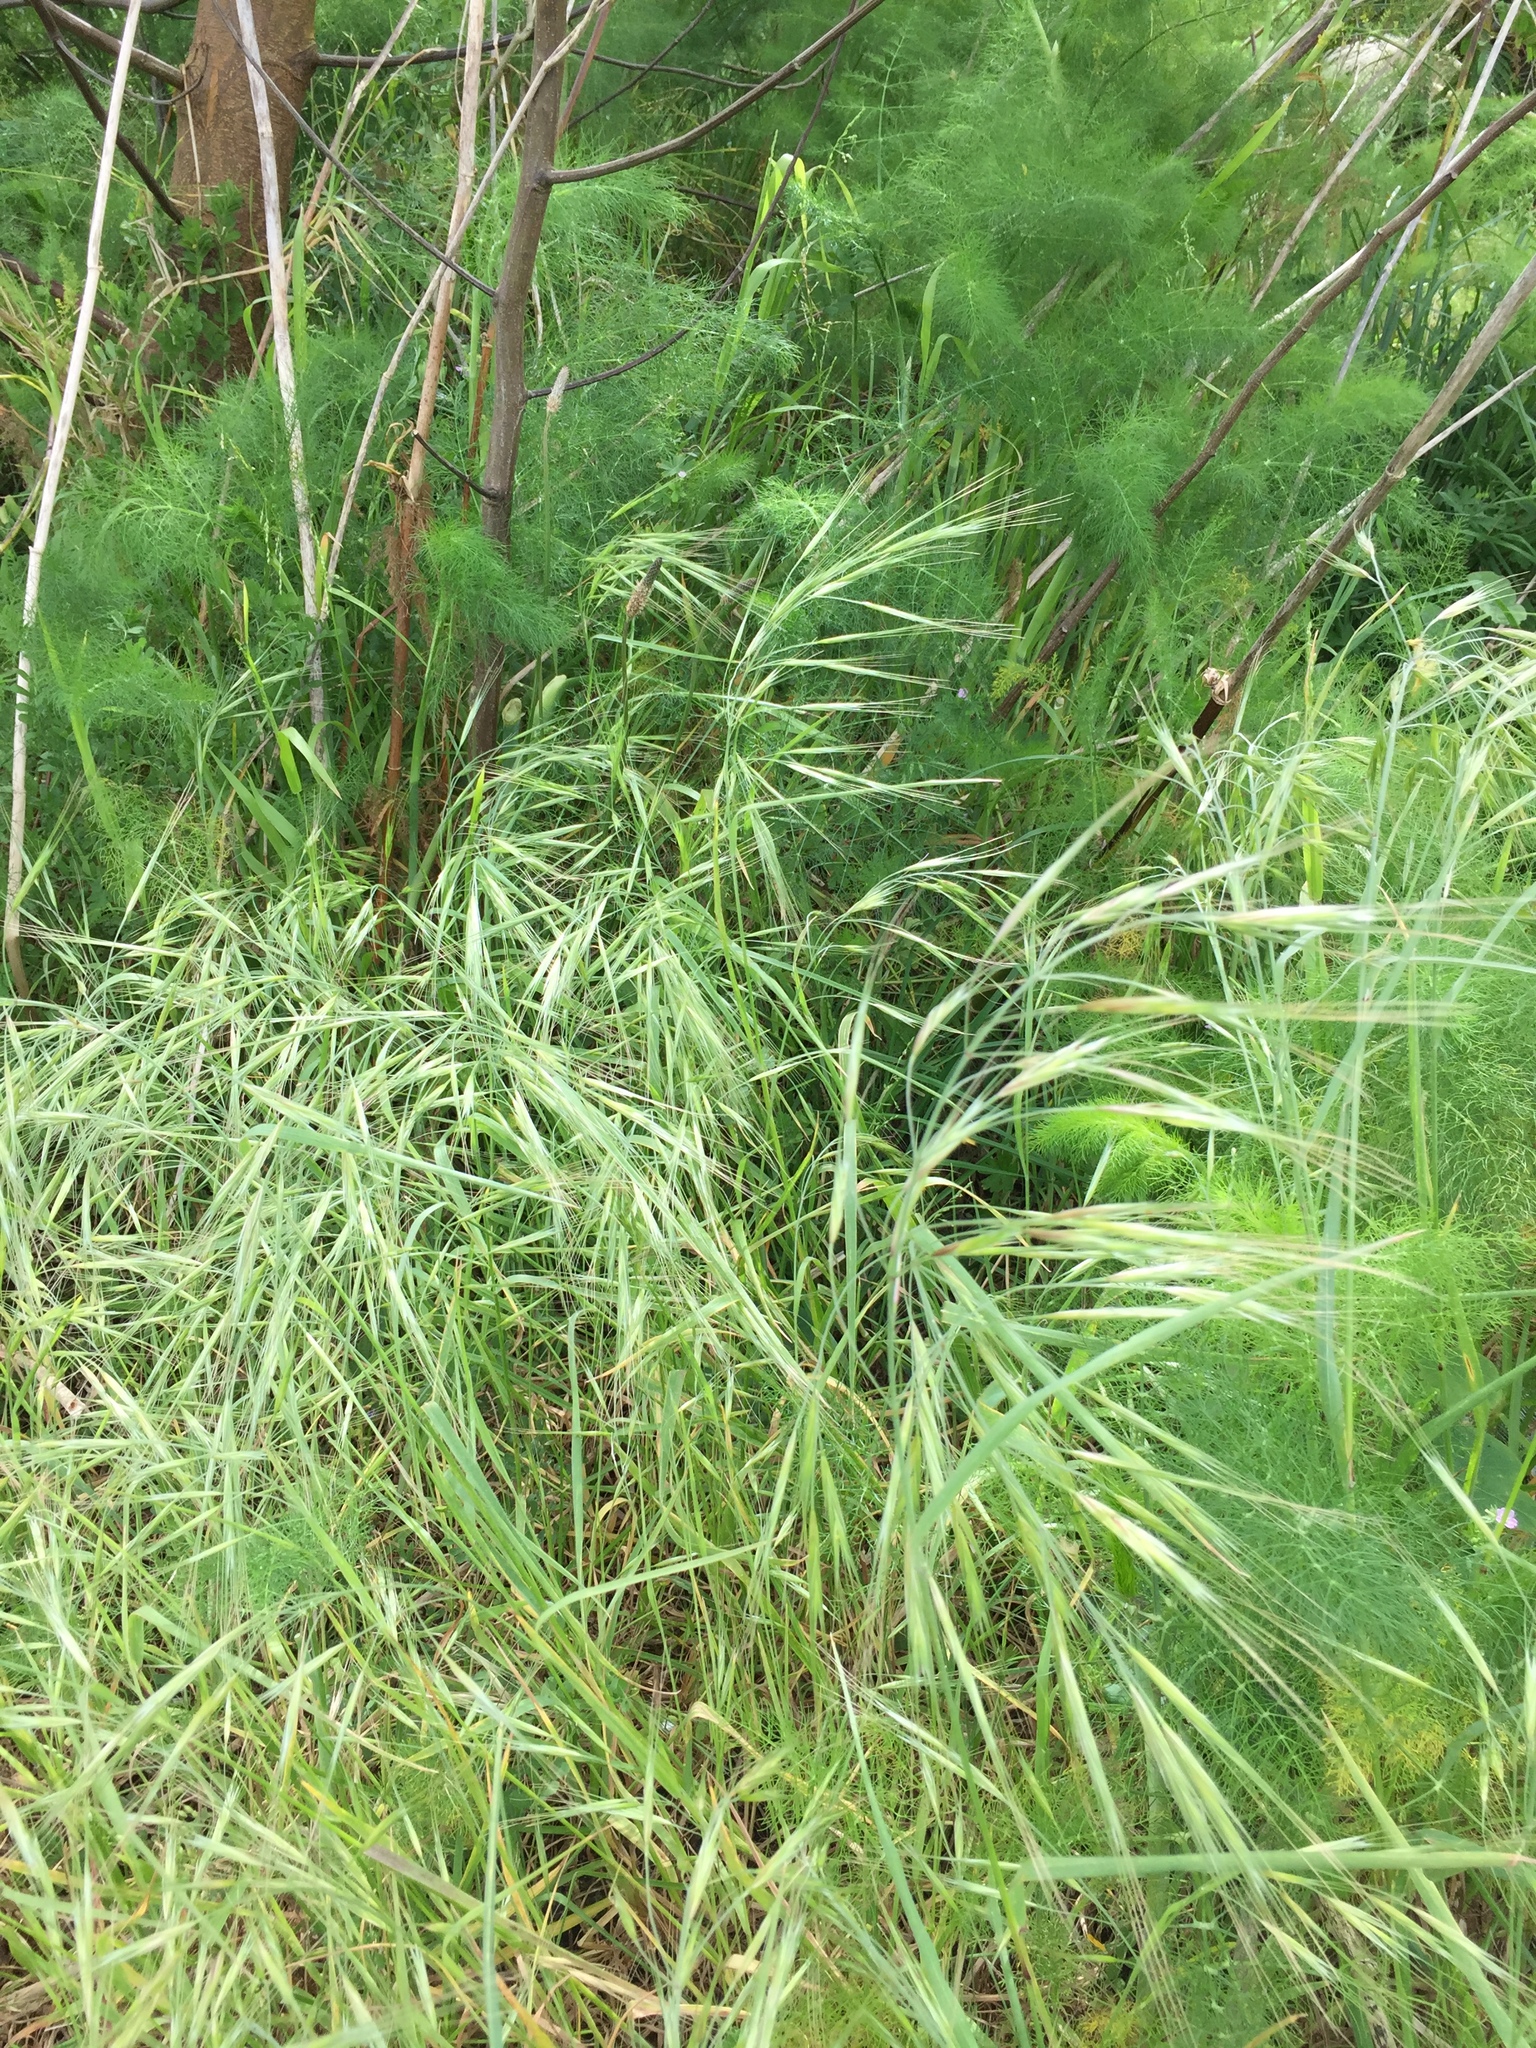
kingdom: Plantae
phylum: Tracheophyta
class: Liliopsida
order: Poales
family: Poaceae
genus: Bromus
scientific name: Bromus diandrus
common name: Ripgut brome
